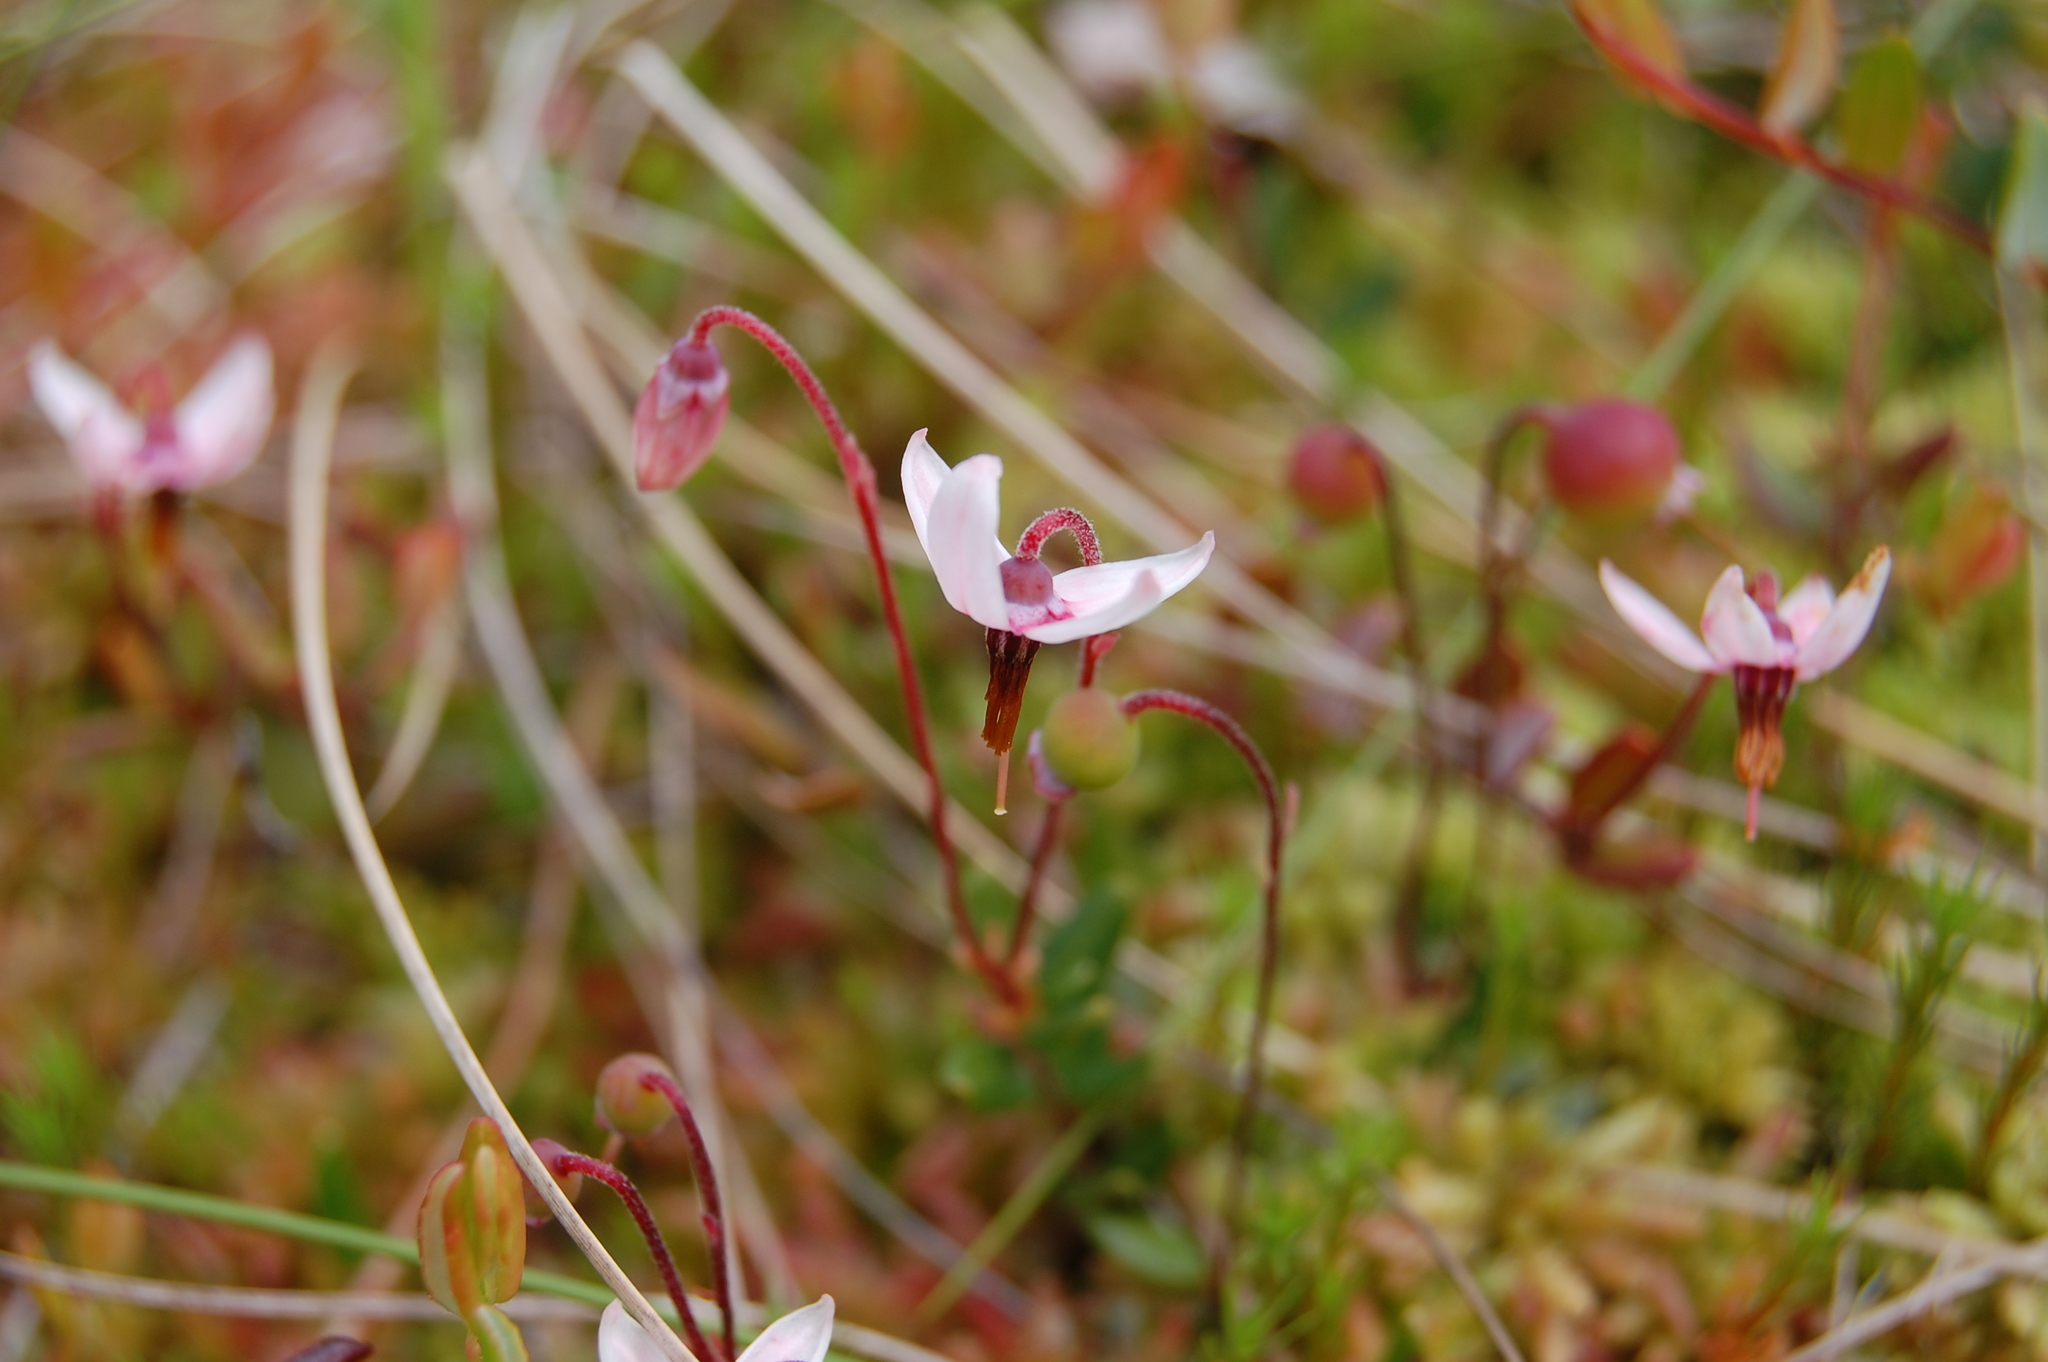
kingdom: Plantae
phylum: Tracheophyta
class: Magnoliopsida
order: Ericales
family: Ericaceae
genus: Vaccinium
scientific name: Vaccinium oxycoccos
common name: Cranberry
